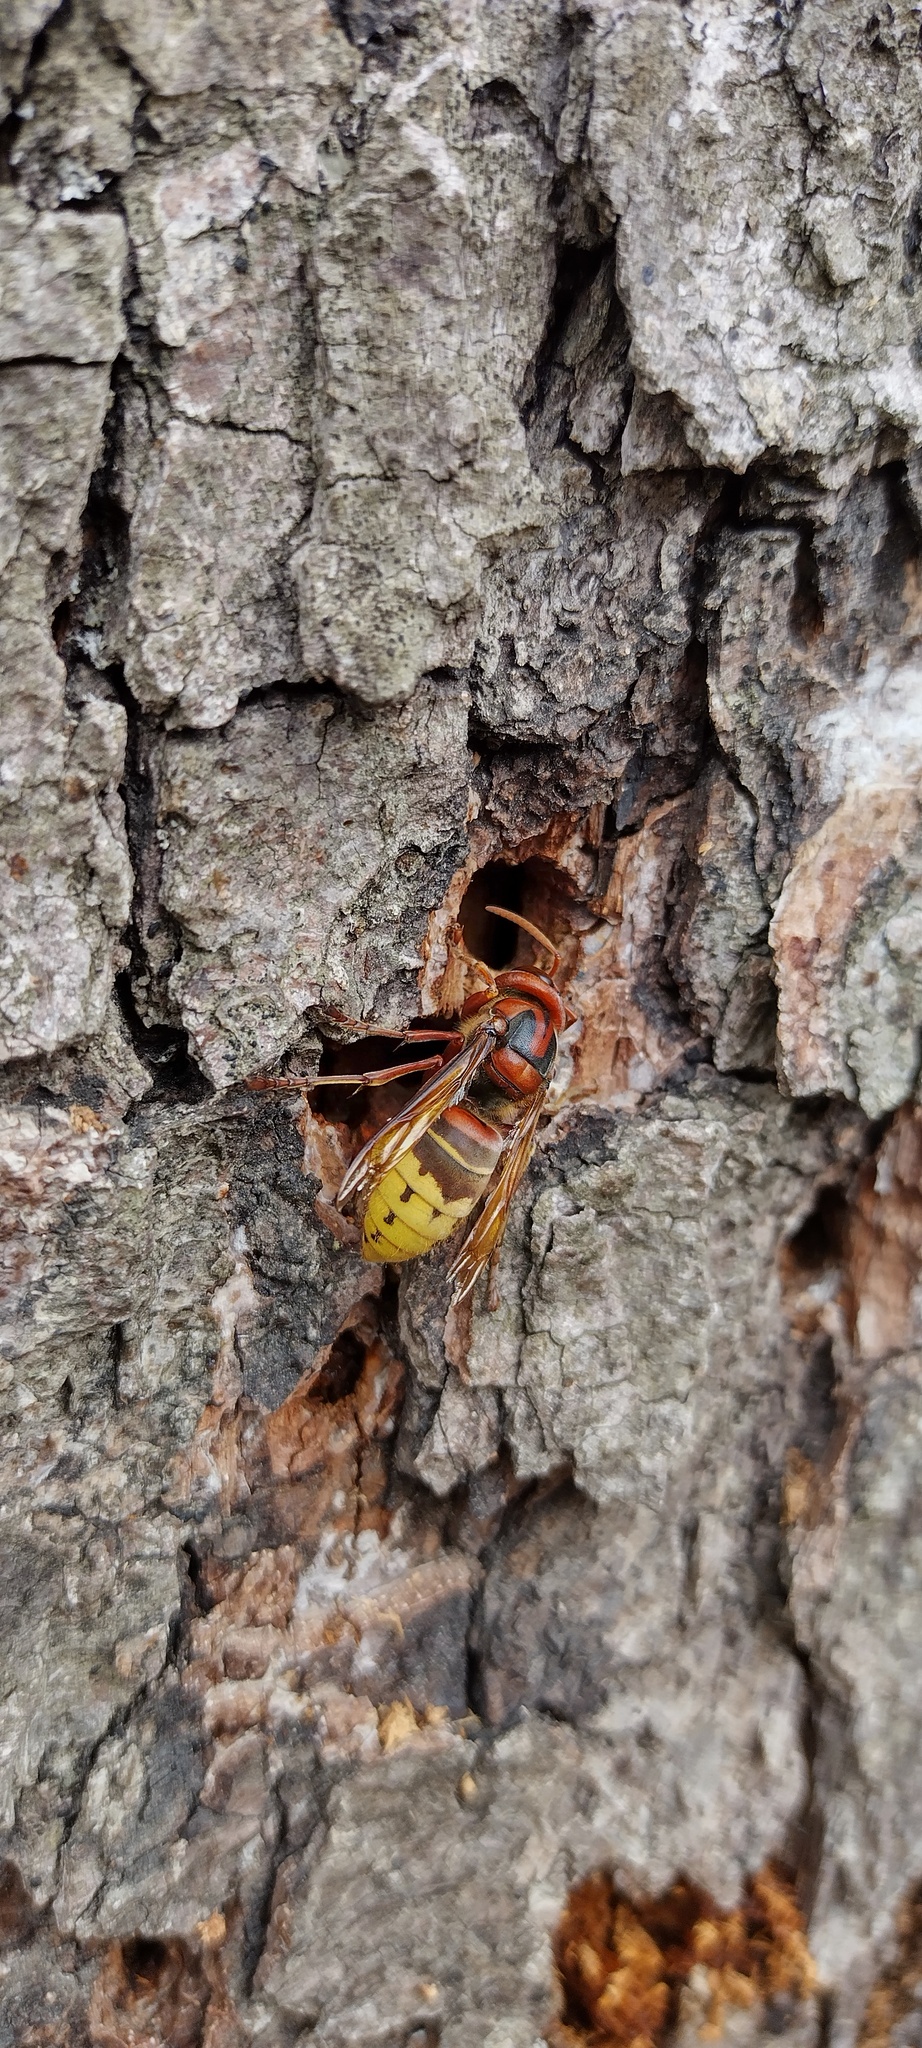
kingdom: Animalia
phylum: Arthropoda
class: Insecta
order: Hymenoptera
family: Vespidae
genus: Vespa
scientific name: Vespa crabro
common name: Hornet
